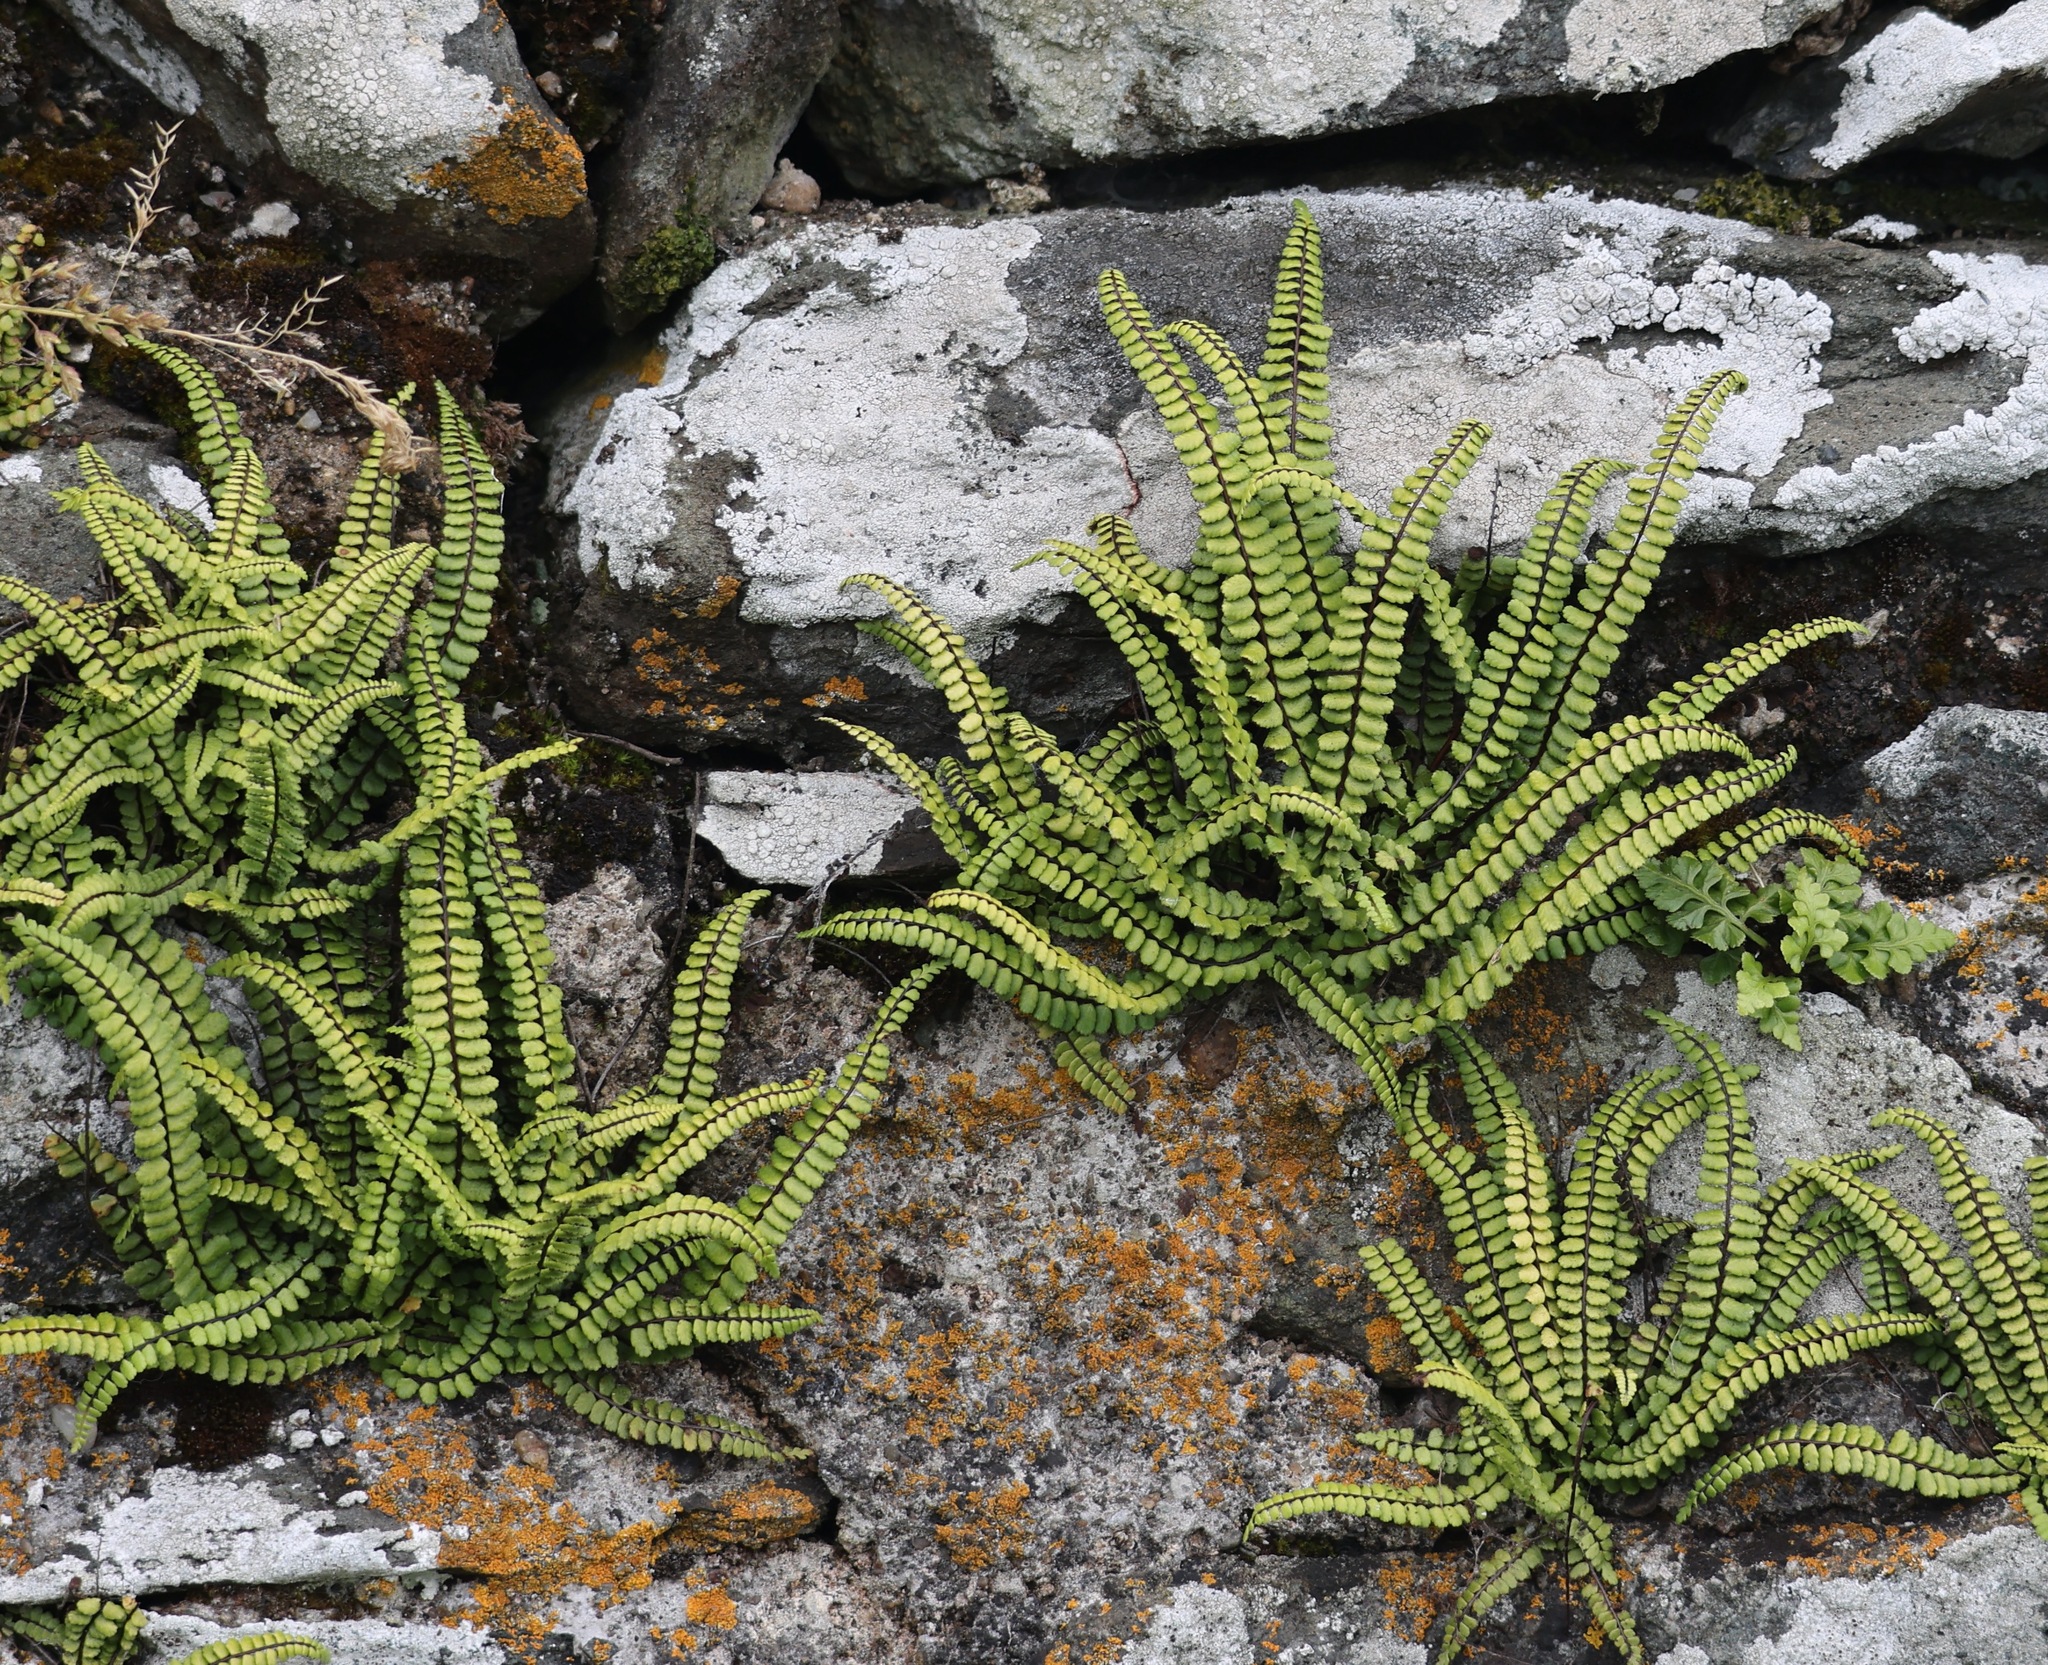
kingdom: Plantae
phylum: Tracheophyta
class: Polypodiopsida
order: Polypodiales
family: Aspleniaceae
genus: Asplenium
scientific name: Asplenium trichomanes
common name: Maidenhair spleenwort
